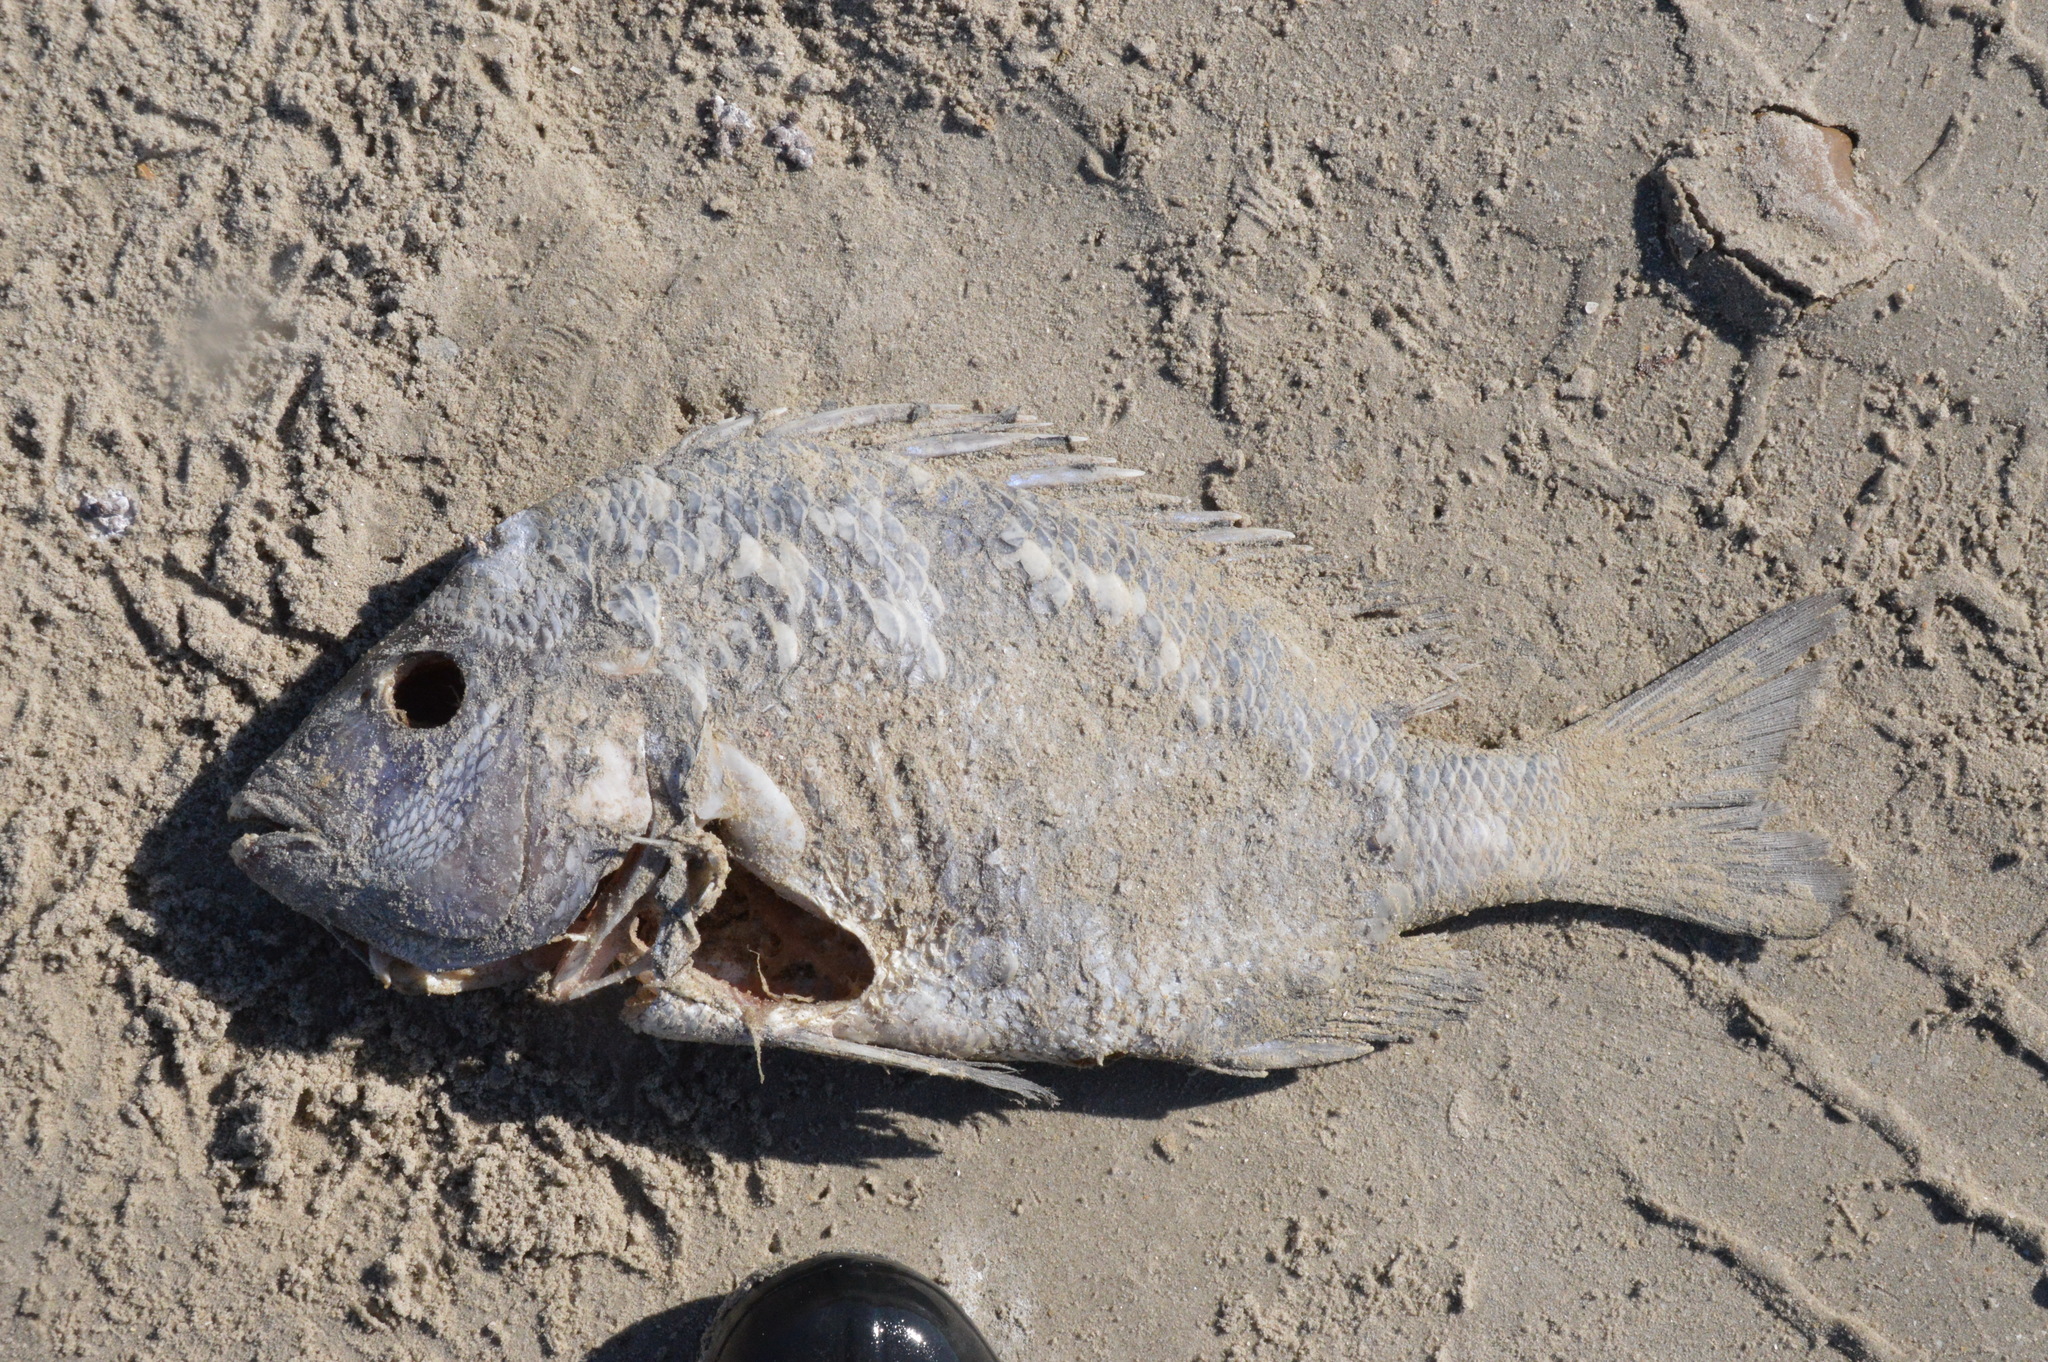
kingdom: Animalia
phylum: Chordata
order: Perciformes
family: Sparidae
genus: Archosargus
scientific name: Archosargus probatocephalus
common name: Sheepshead
